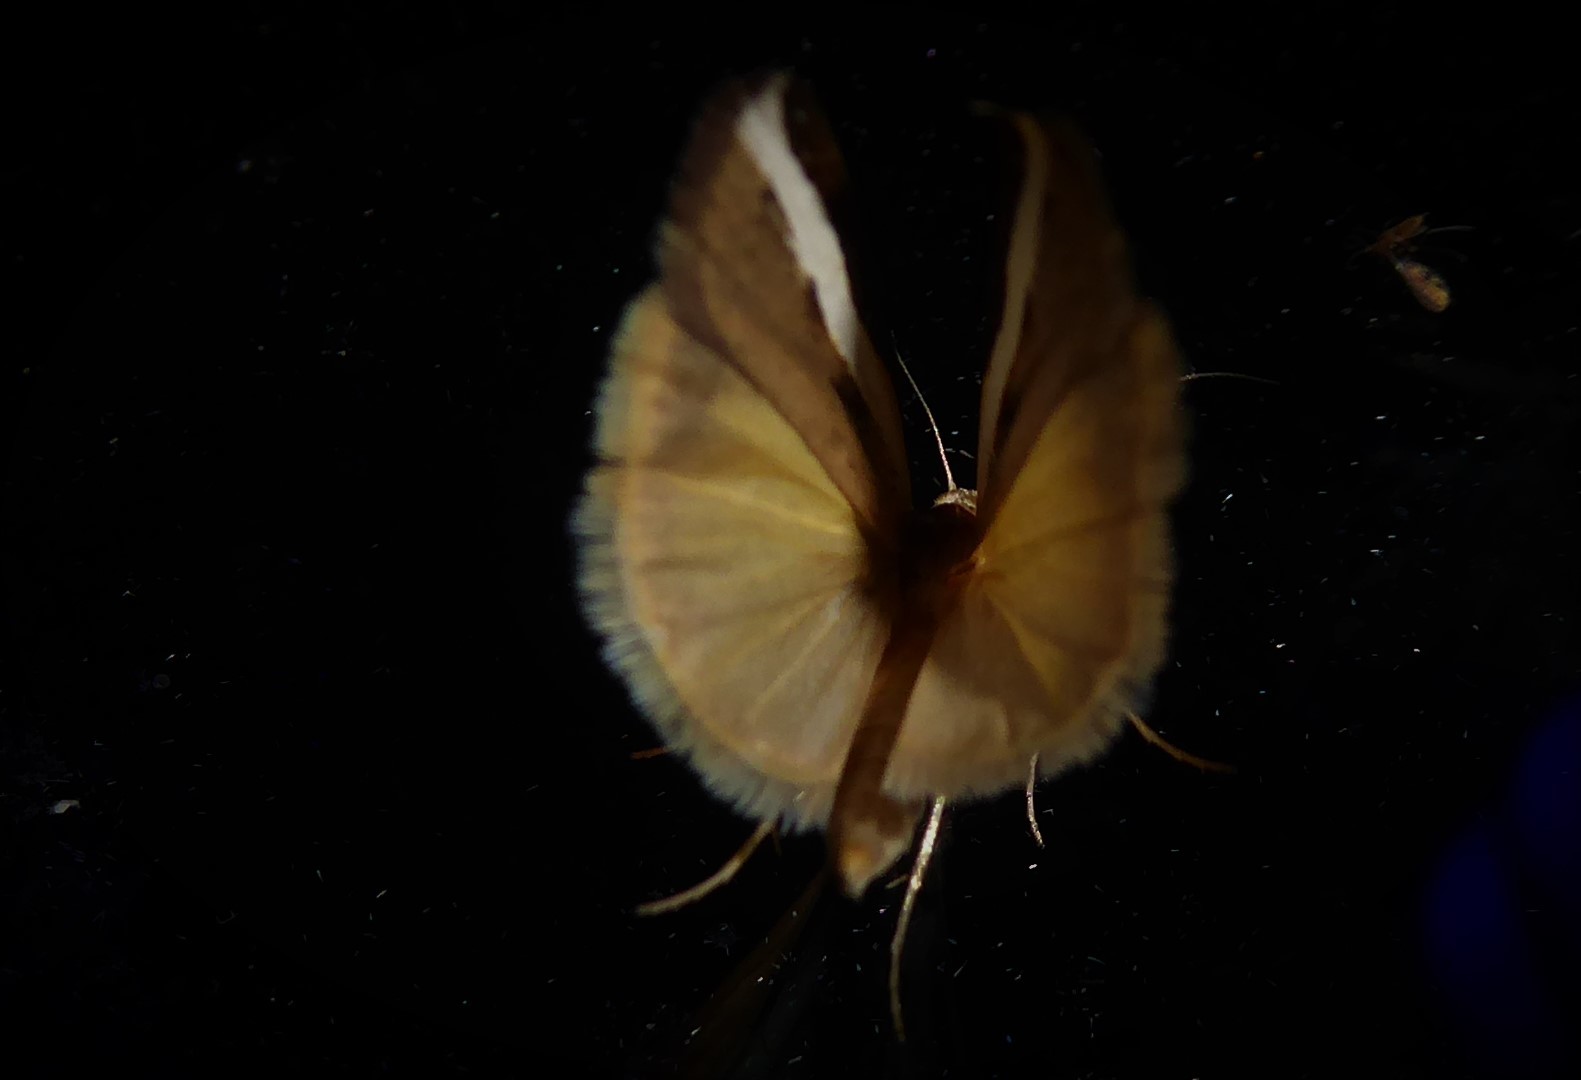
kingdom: Animalia
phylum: Arthropoda
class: Insecta
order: Lepidoptera
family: Crambidae
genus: Orocrambus
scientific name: Orocrambus flexuosellus
